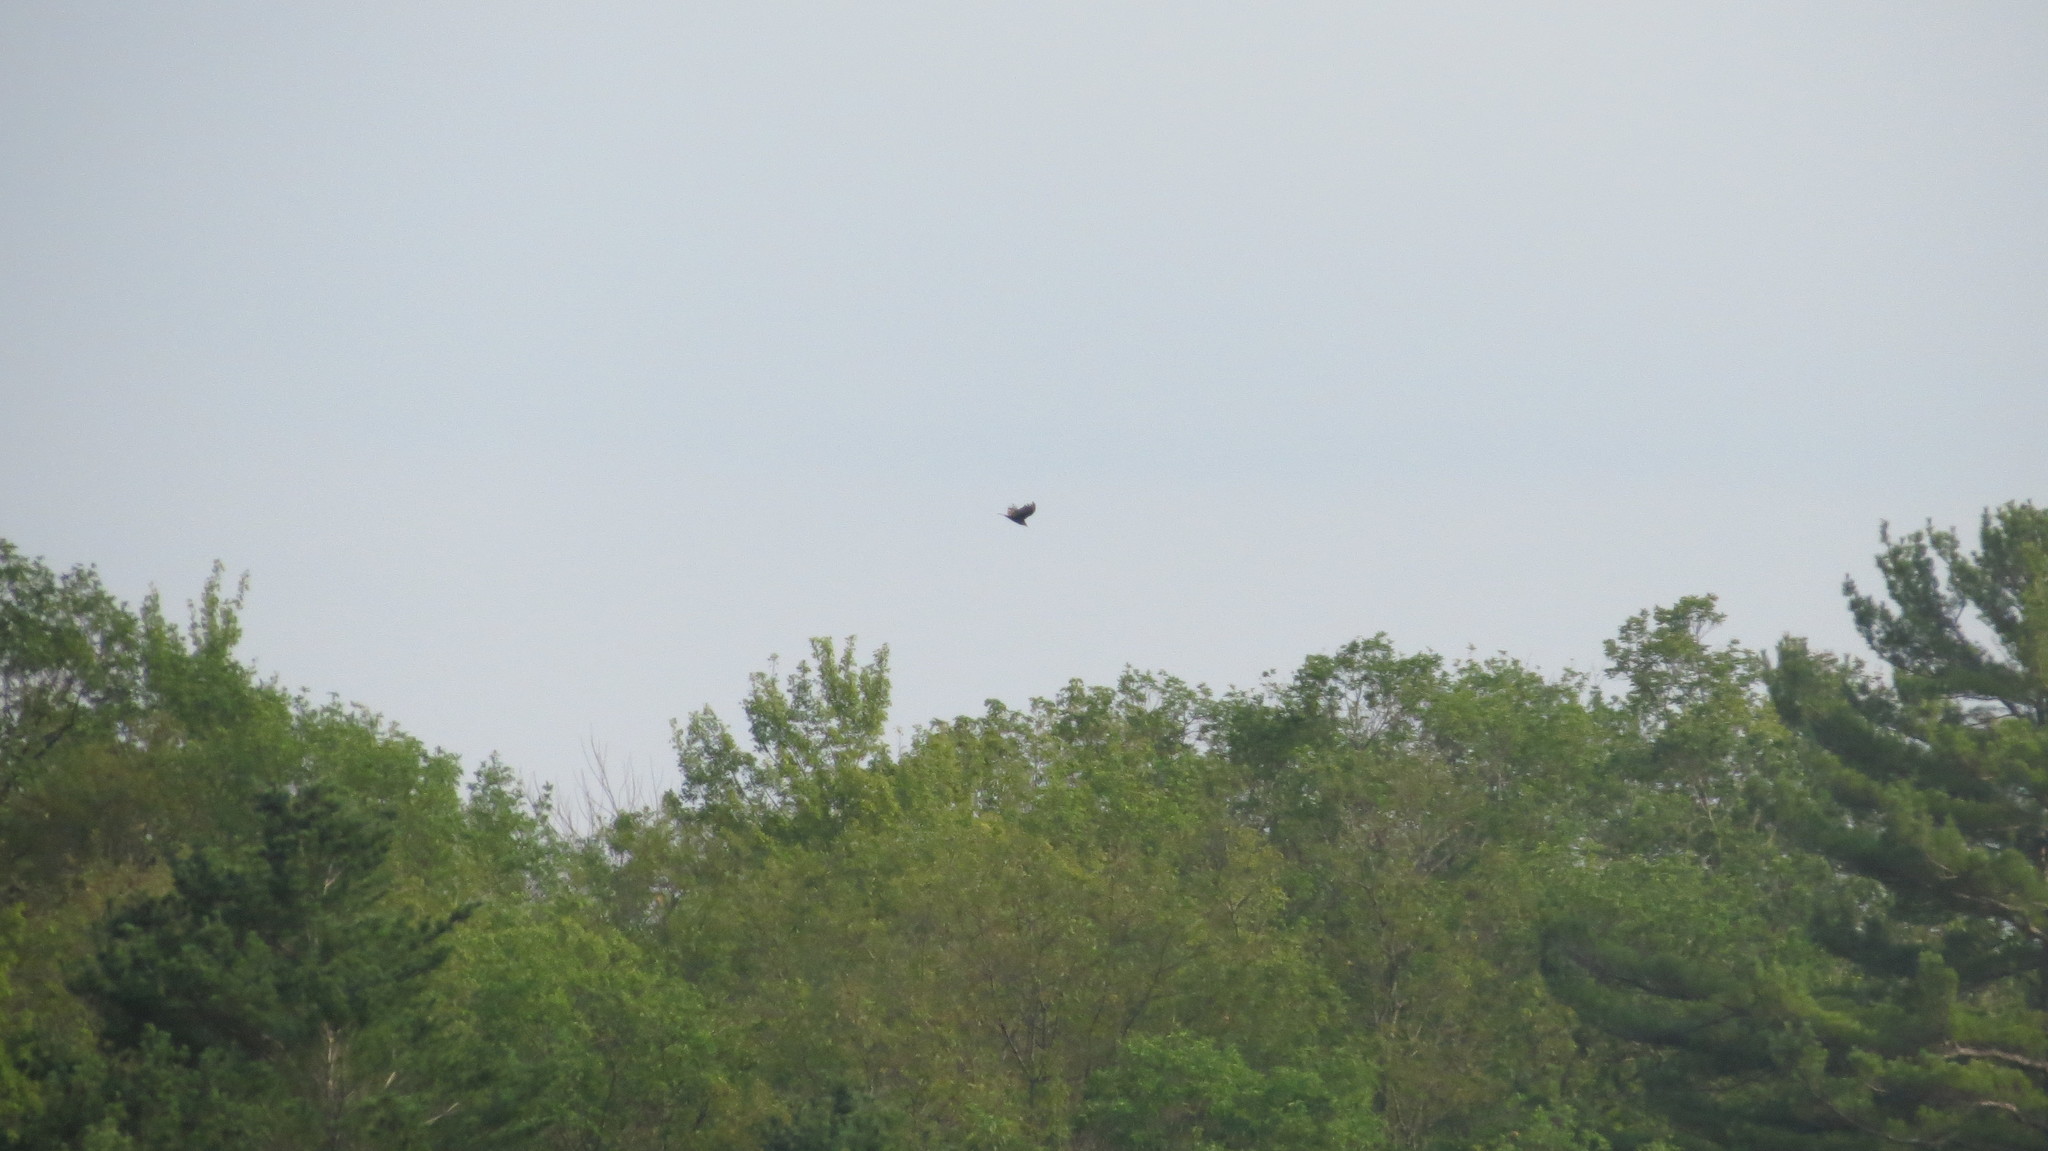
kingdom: Animalia
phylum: Chordata
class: Aves
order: Accipitriformes
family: Cathartidae
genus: Cathartes
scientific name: Cathartes aura
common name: Turkey vulture
